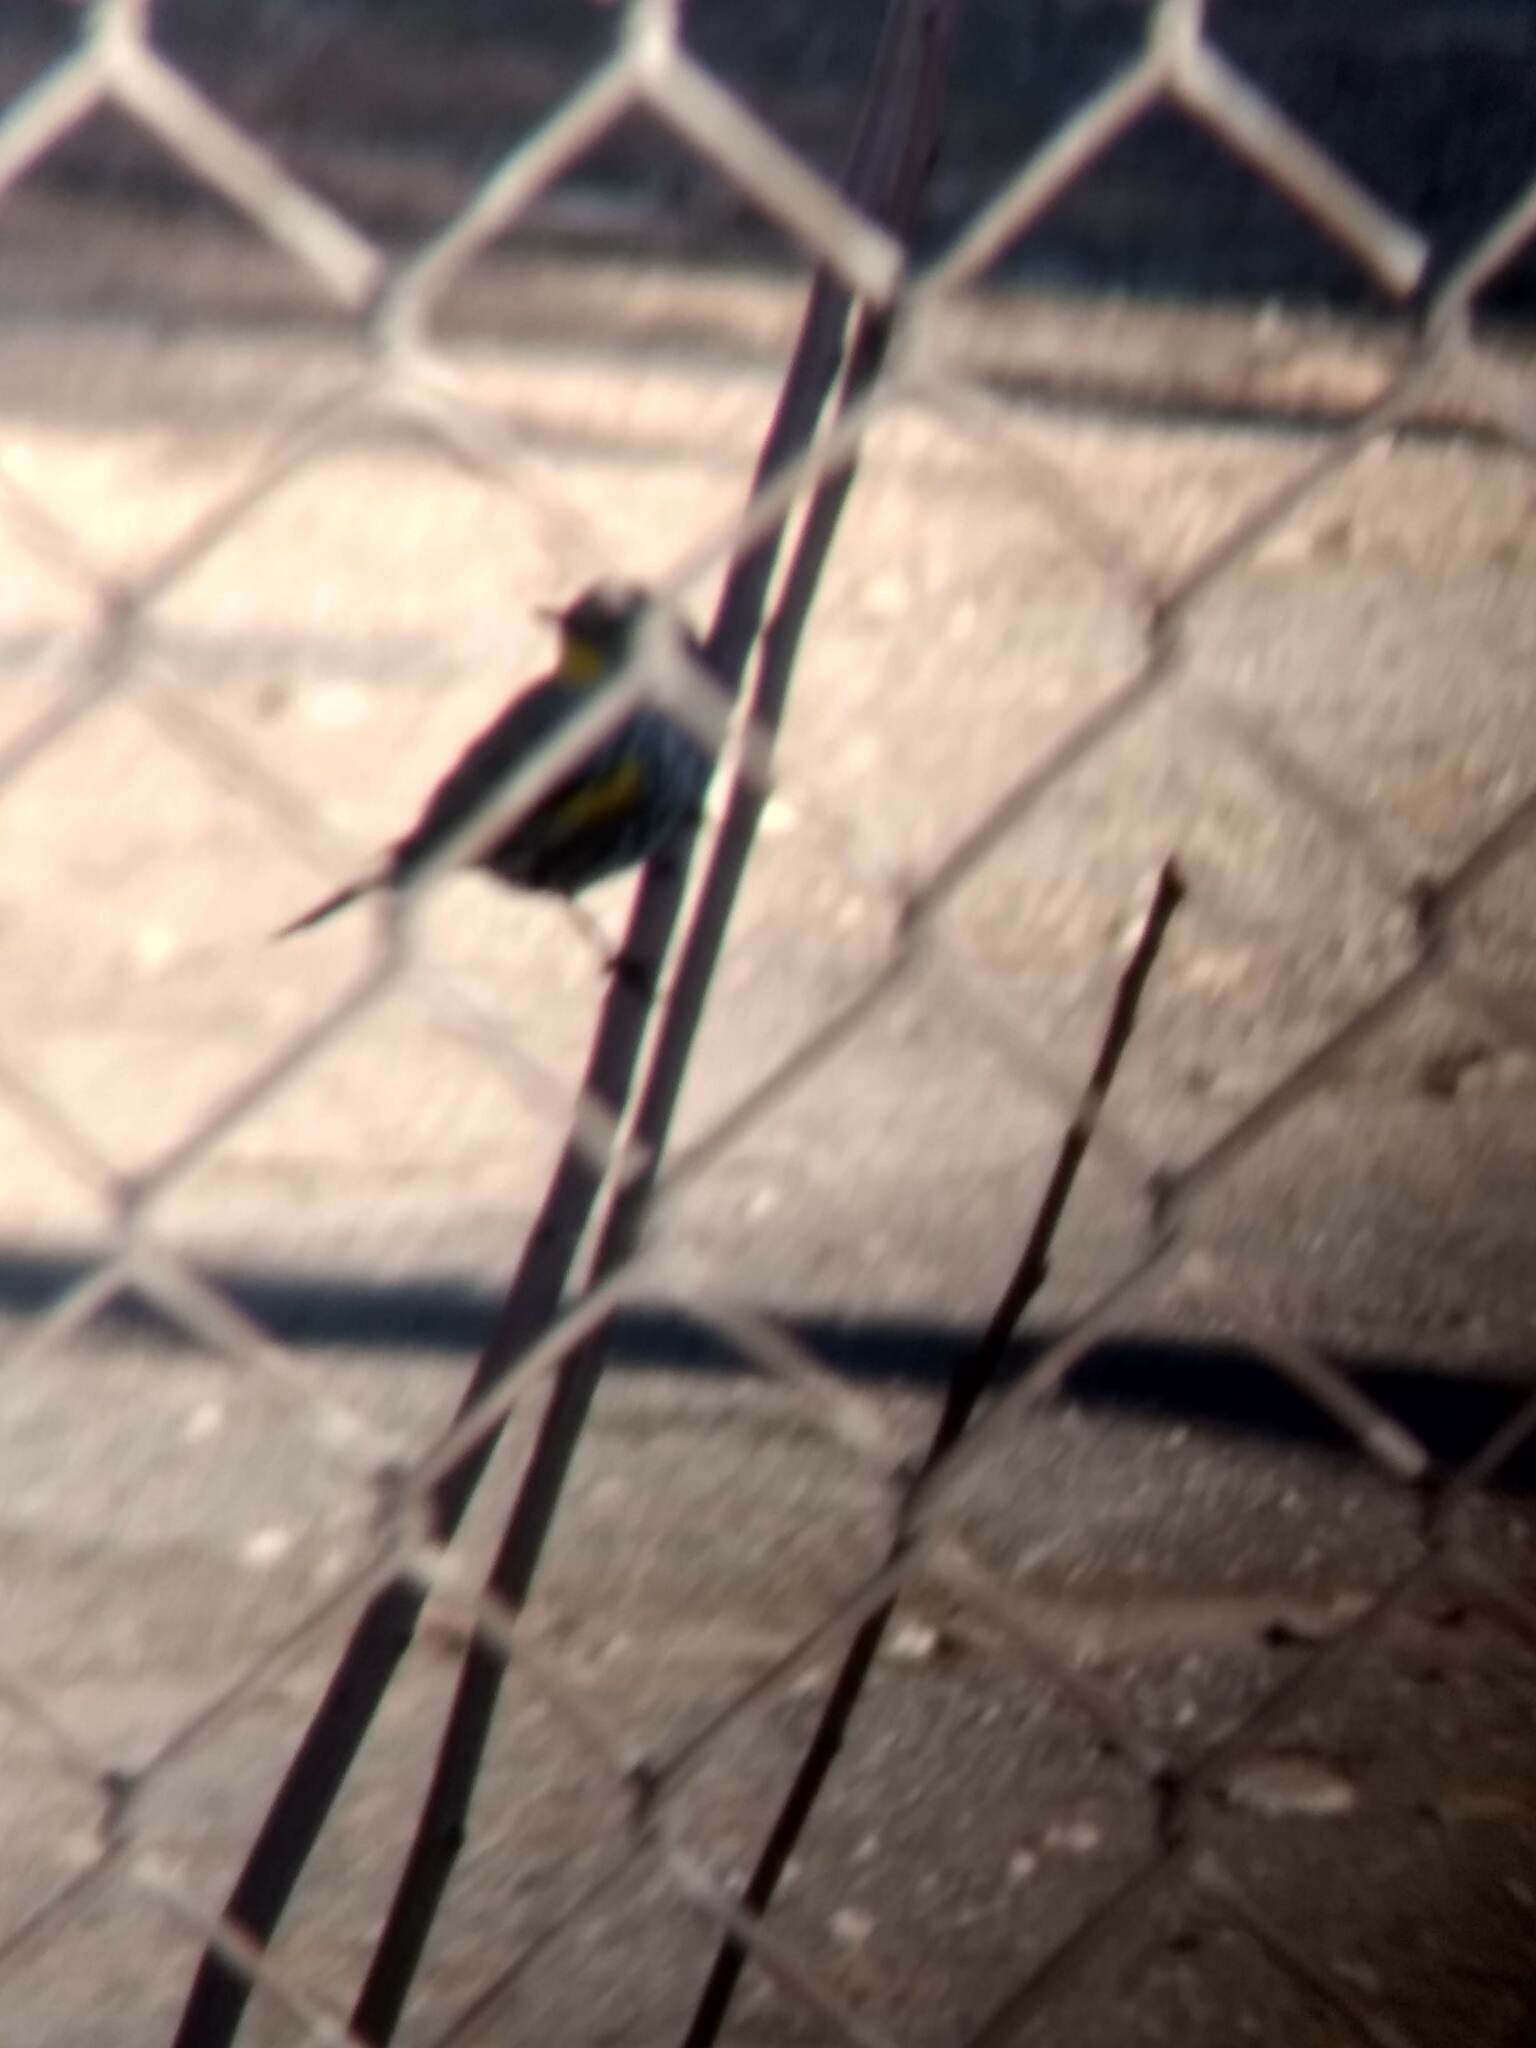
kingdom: Animalia
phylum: Chordata
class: Aves
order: Passeriformes
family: Parulidae
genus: Setophaga
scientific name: Setophaga coronata
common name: Myrtle warbler
